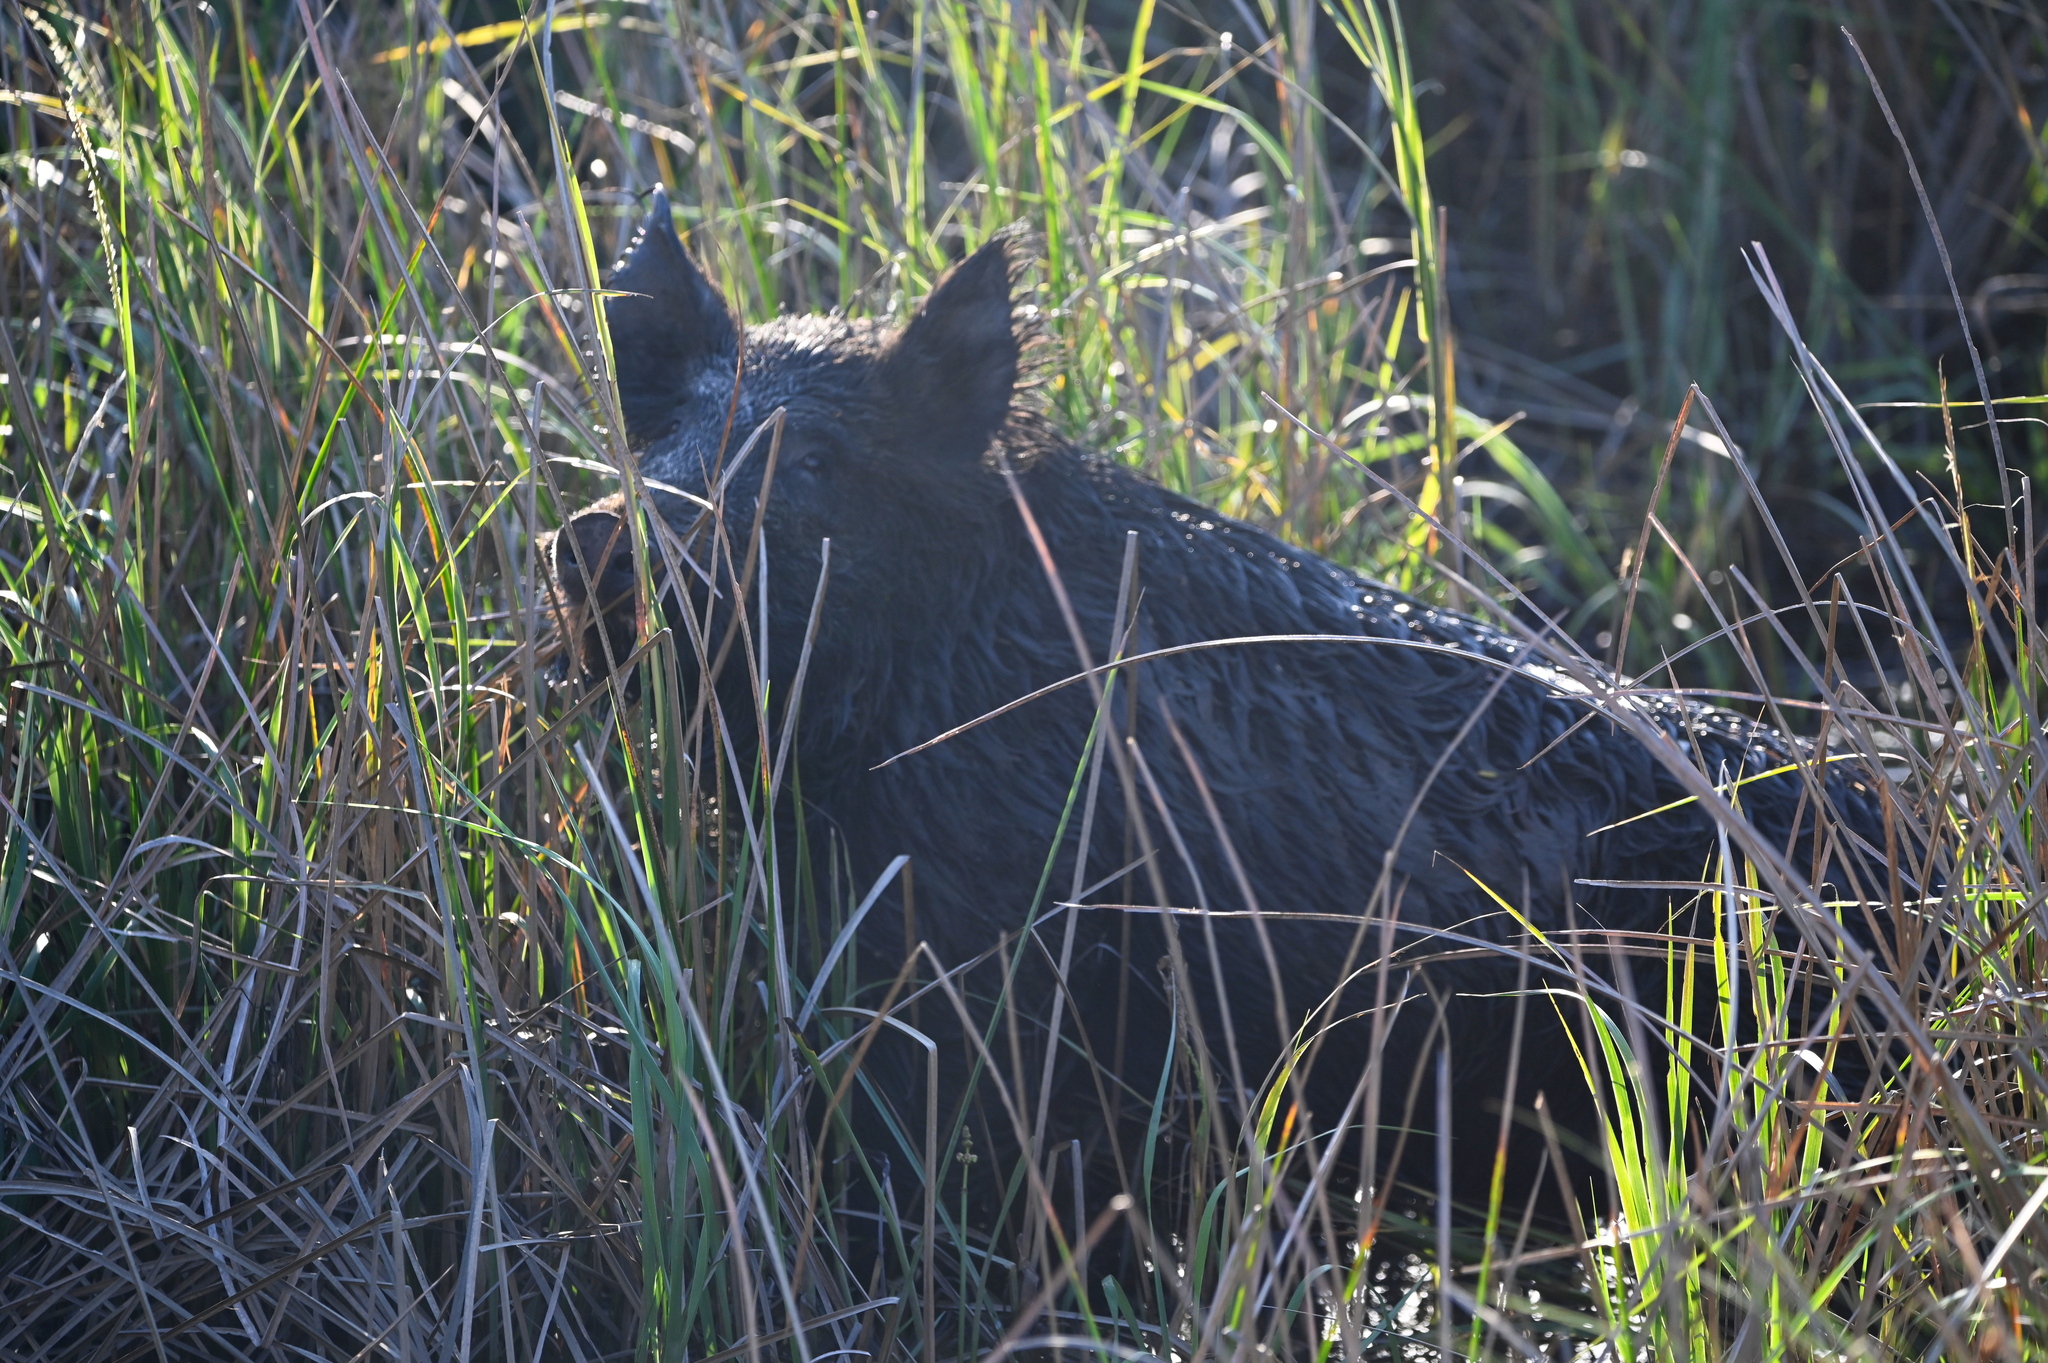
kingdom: Animalia
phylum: Chordata
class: Mammalia
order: Artiodactyla
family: Suidae
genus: Sus
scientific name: Sus scrofa
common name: Wild boar
